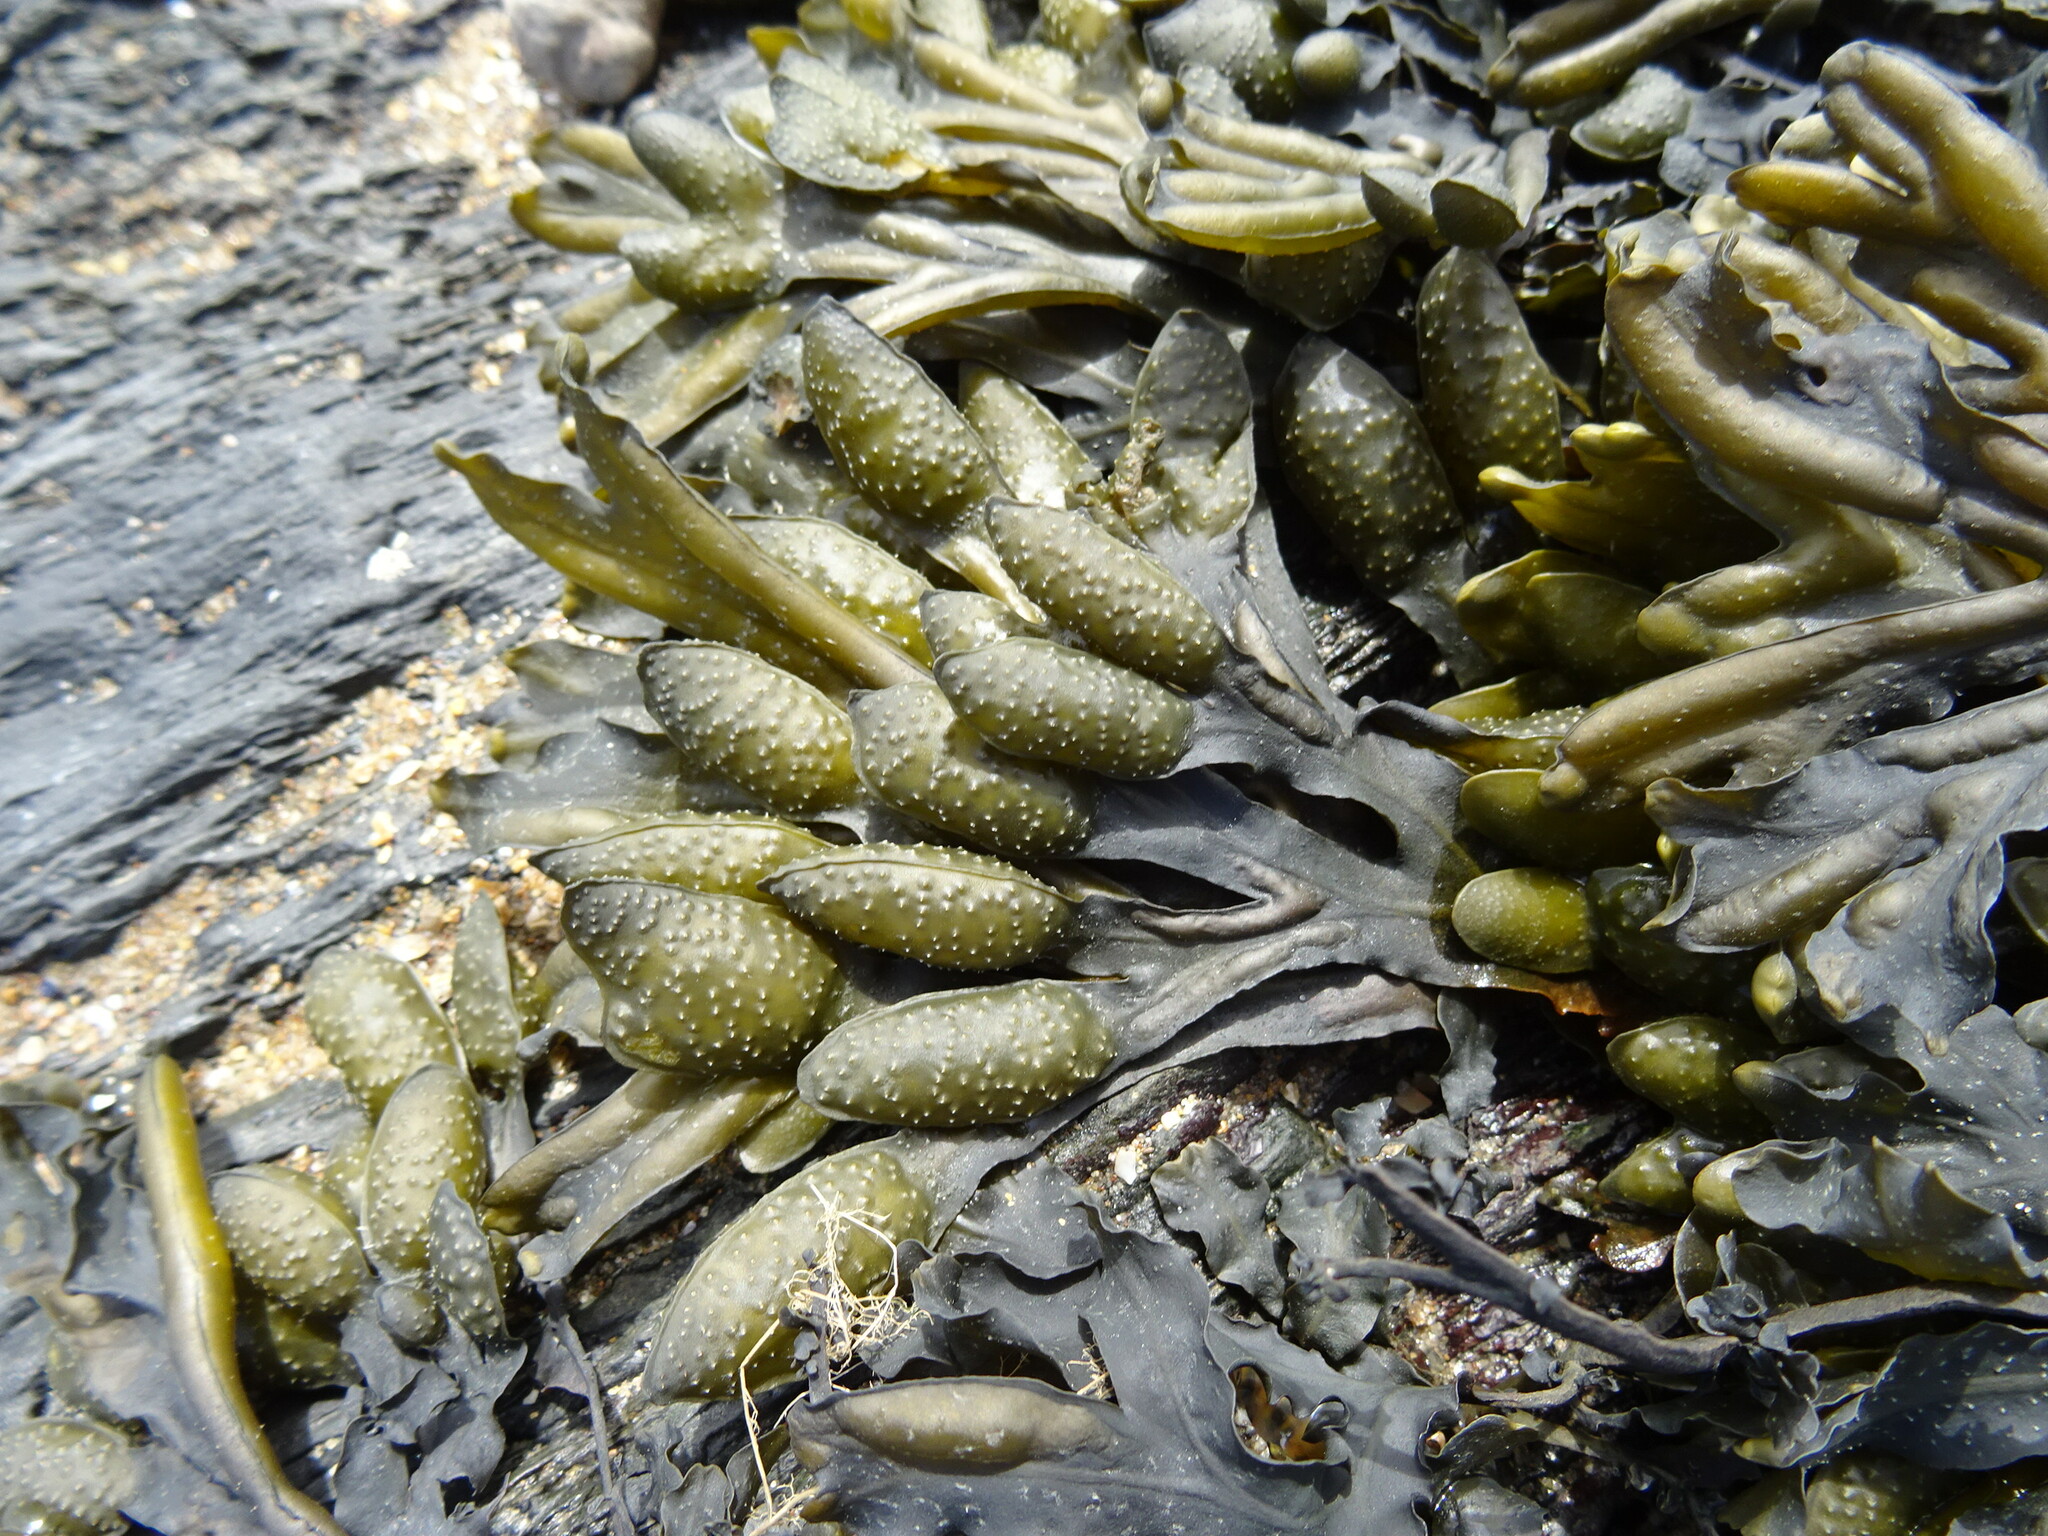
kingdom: Chromista
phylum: Ochrophyta
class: Phaeophyceae
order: Fucales
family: Fucaceae
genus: Fucus
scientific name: Fucus spiralis
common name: Spiral wrack
